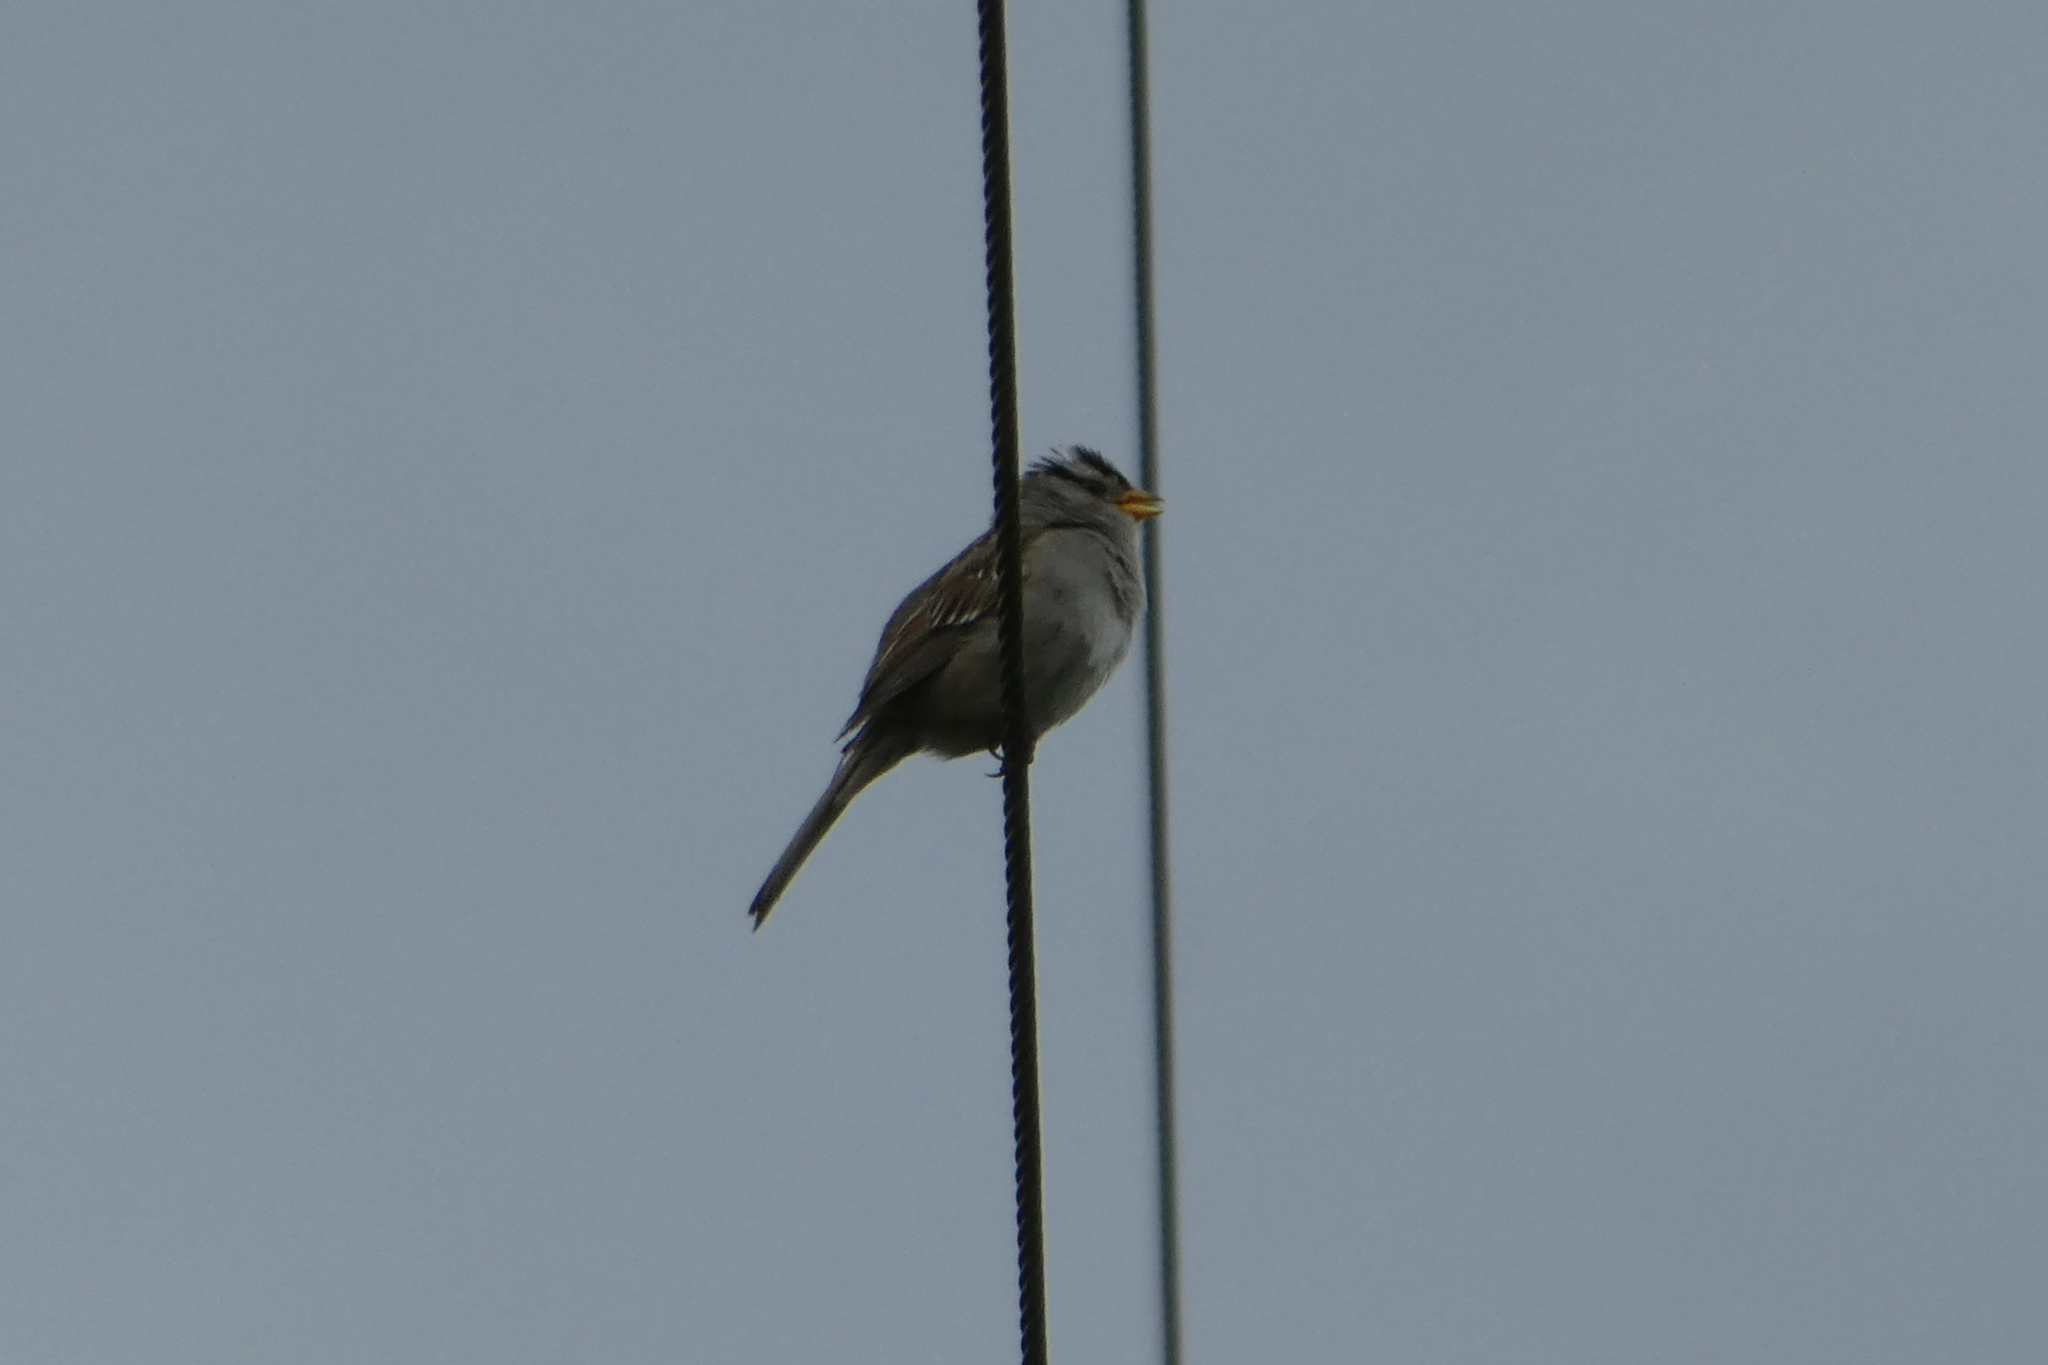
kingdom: Animalia
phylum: Chordata
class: Aves
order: Passeriformes
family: Passerellidae
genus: Zonotrichia
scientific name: Zonotrichia leucophrys
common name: White-crowned sparrow
